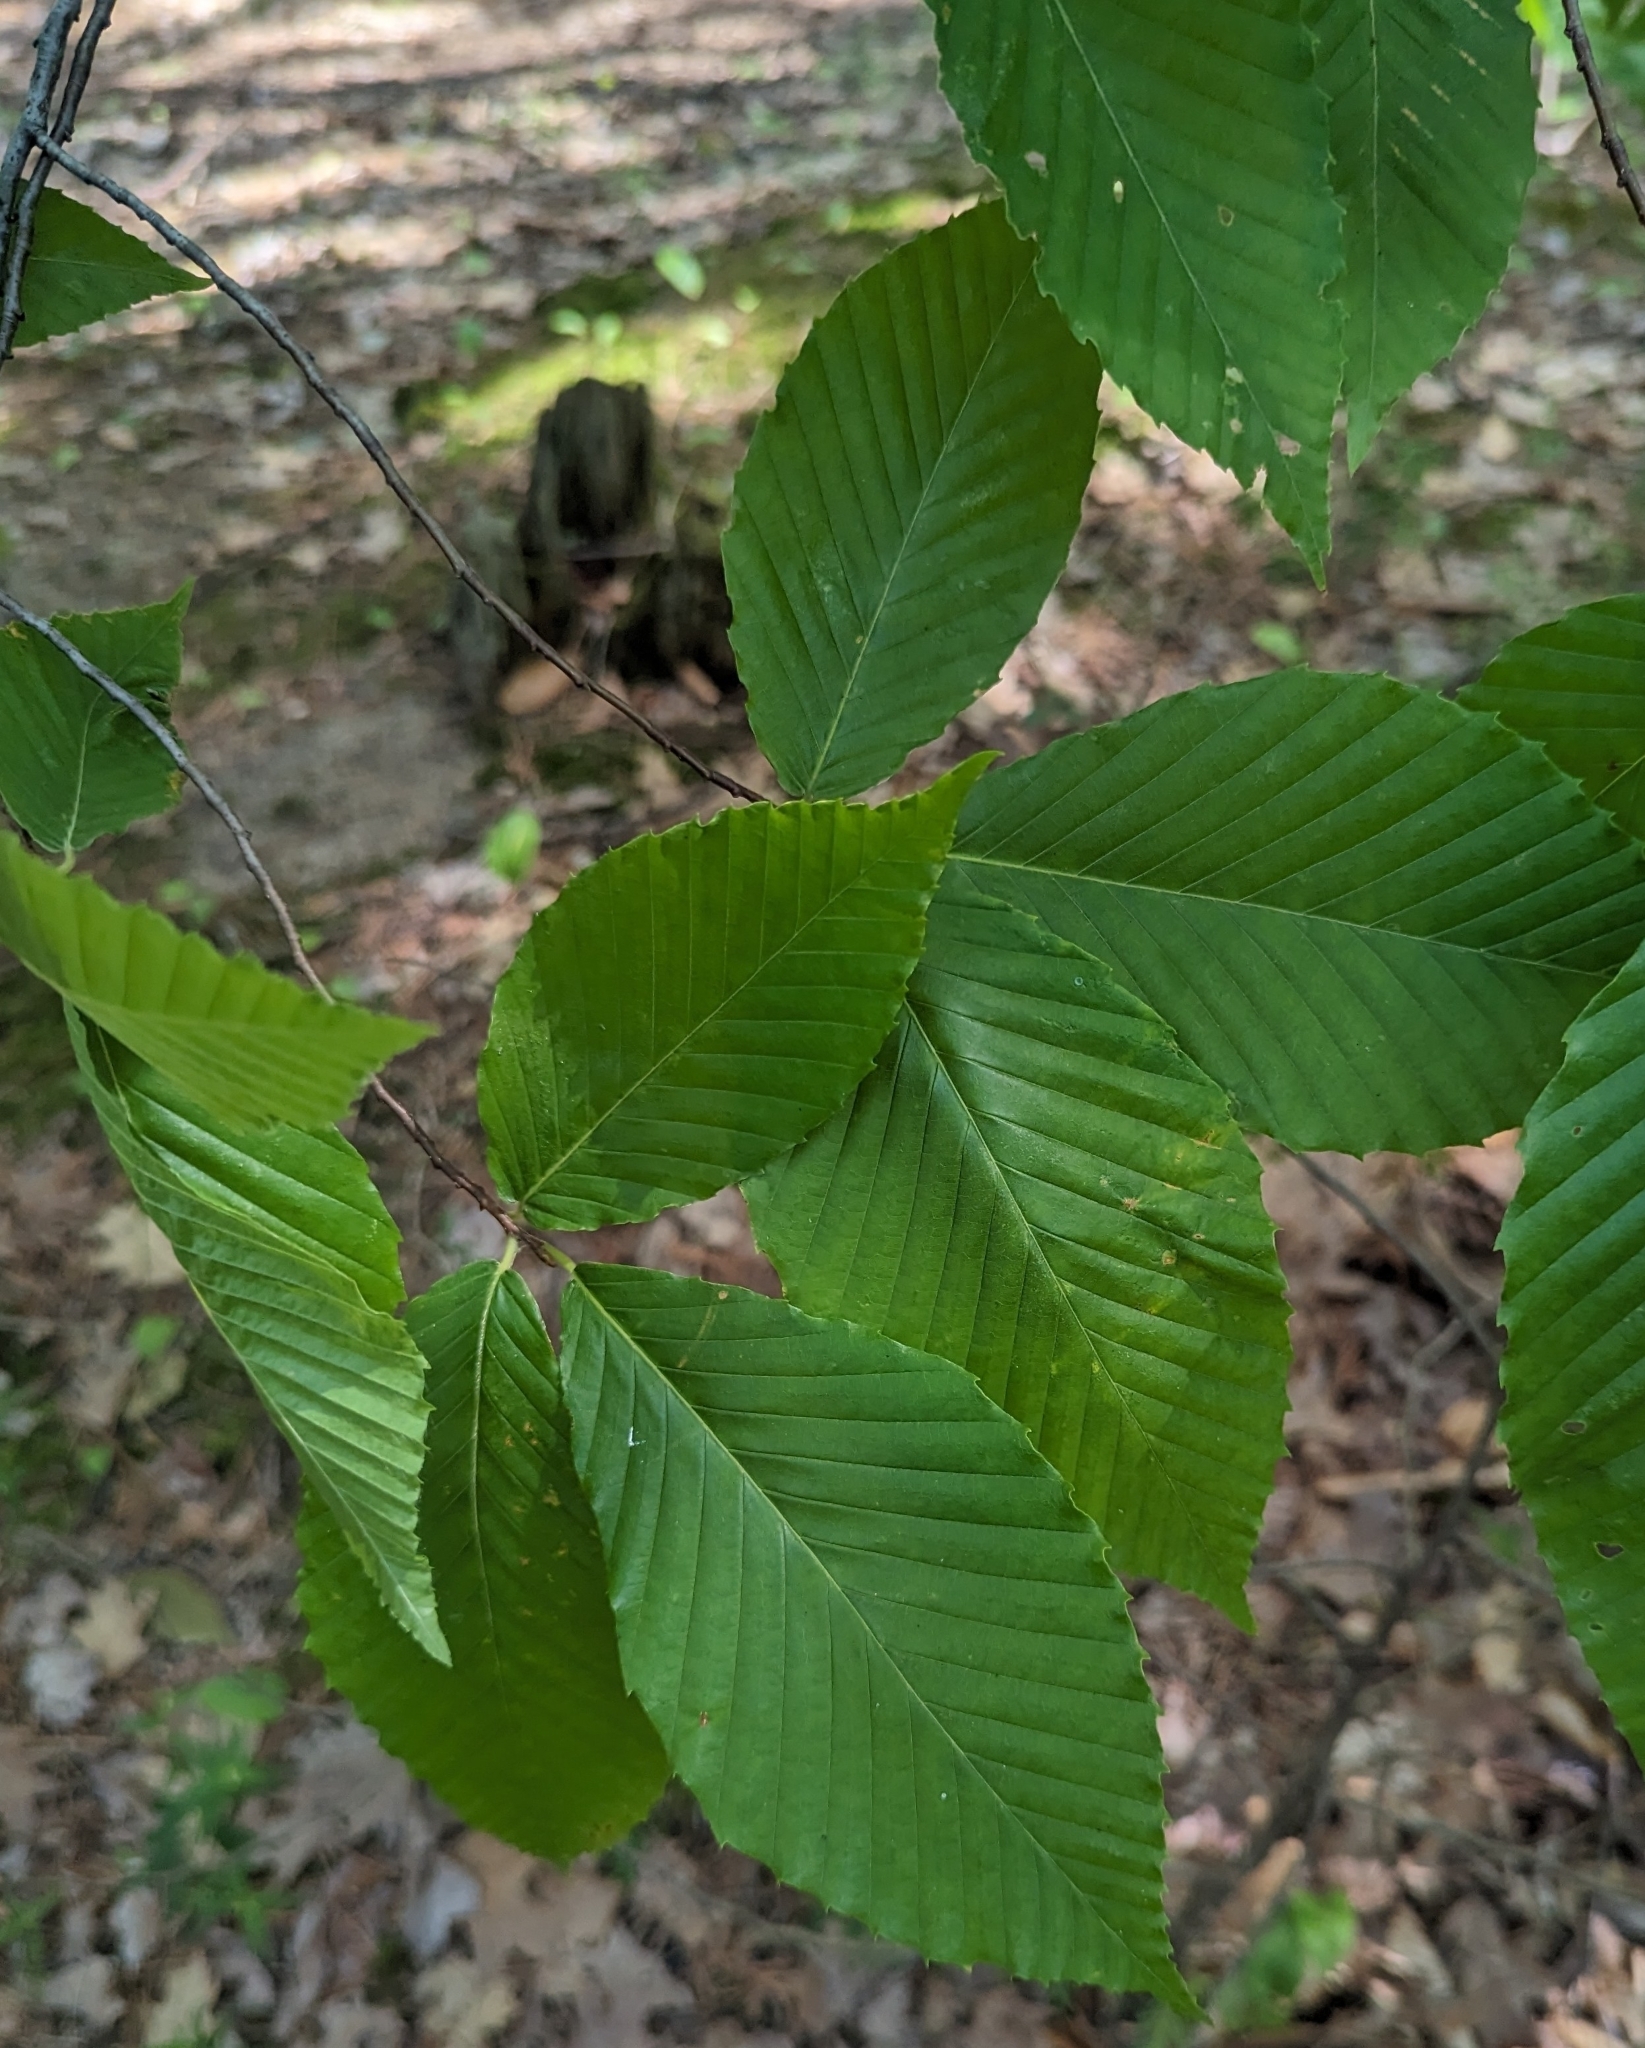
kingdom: Plantae
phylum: Tracheophyta
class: Magnoliopsida
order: Fagales
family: Fagaceae
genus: Fagus
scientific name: Fagus grandifolia
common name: American beech
